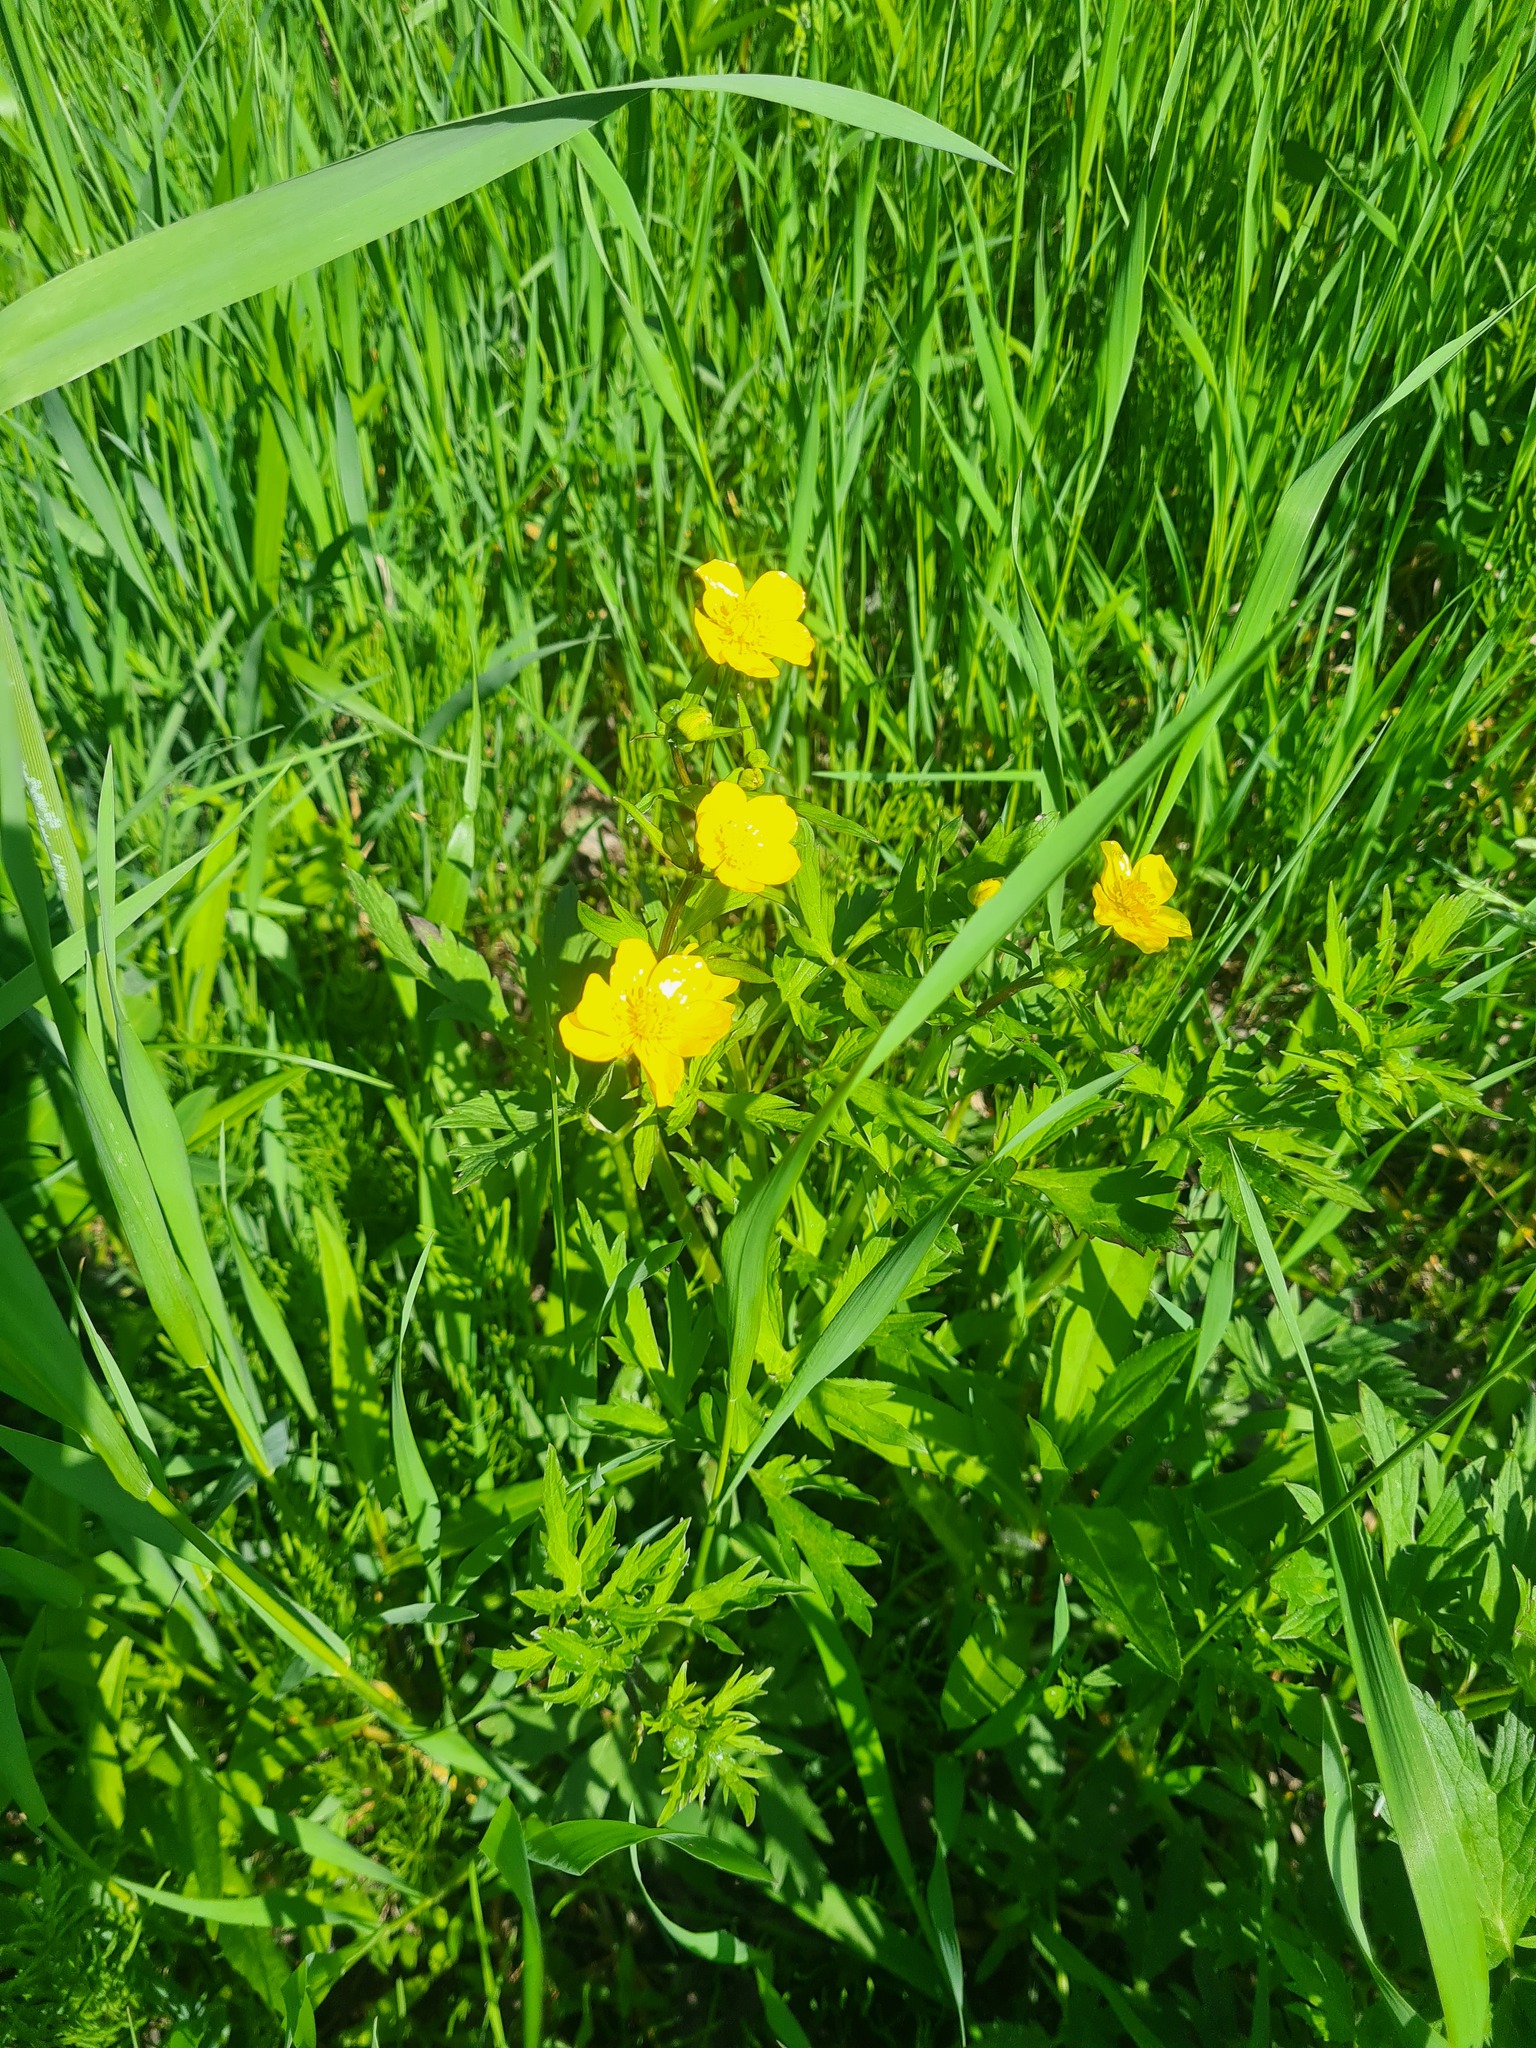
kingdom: Plantae
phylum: Tracheophyta
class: Magnoliopsida
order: Ranunculales
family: Ranunculaceae
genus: Ranunculus
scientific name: Ranunculus repens
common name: Creeping buttercup
